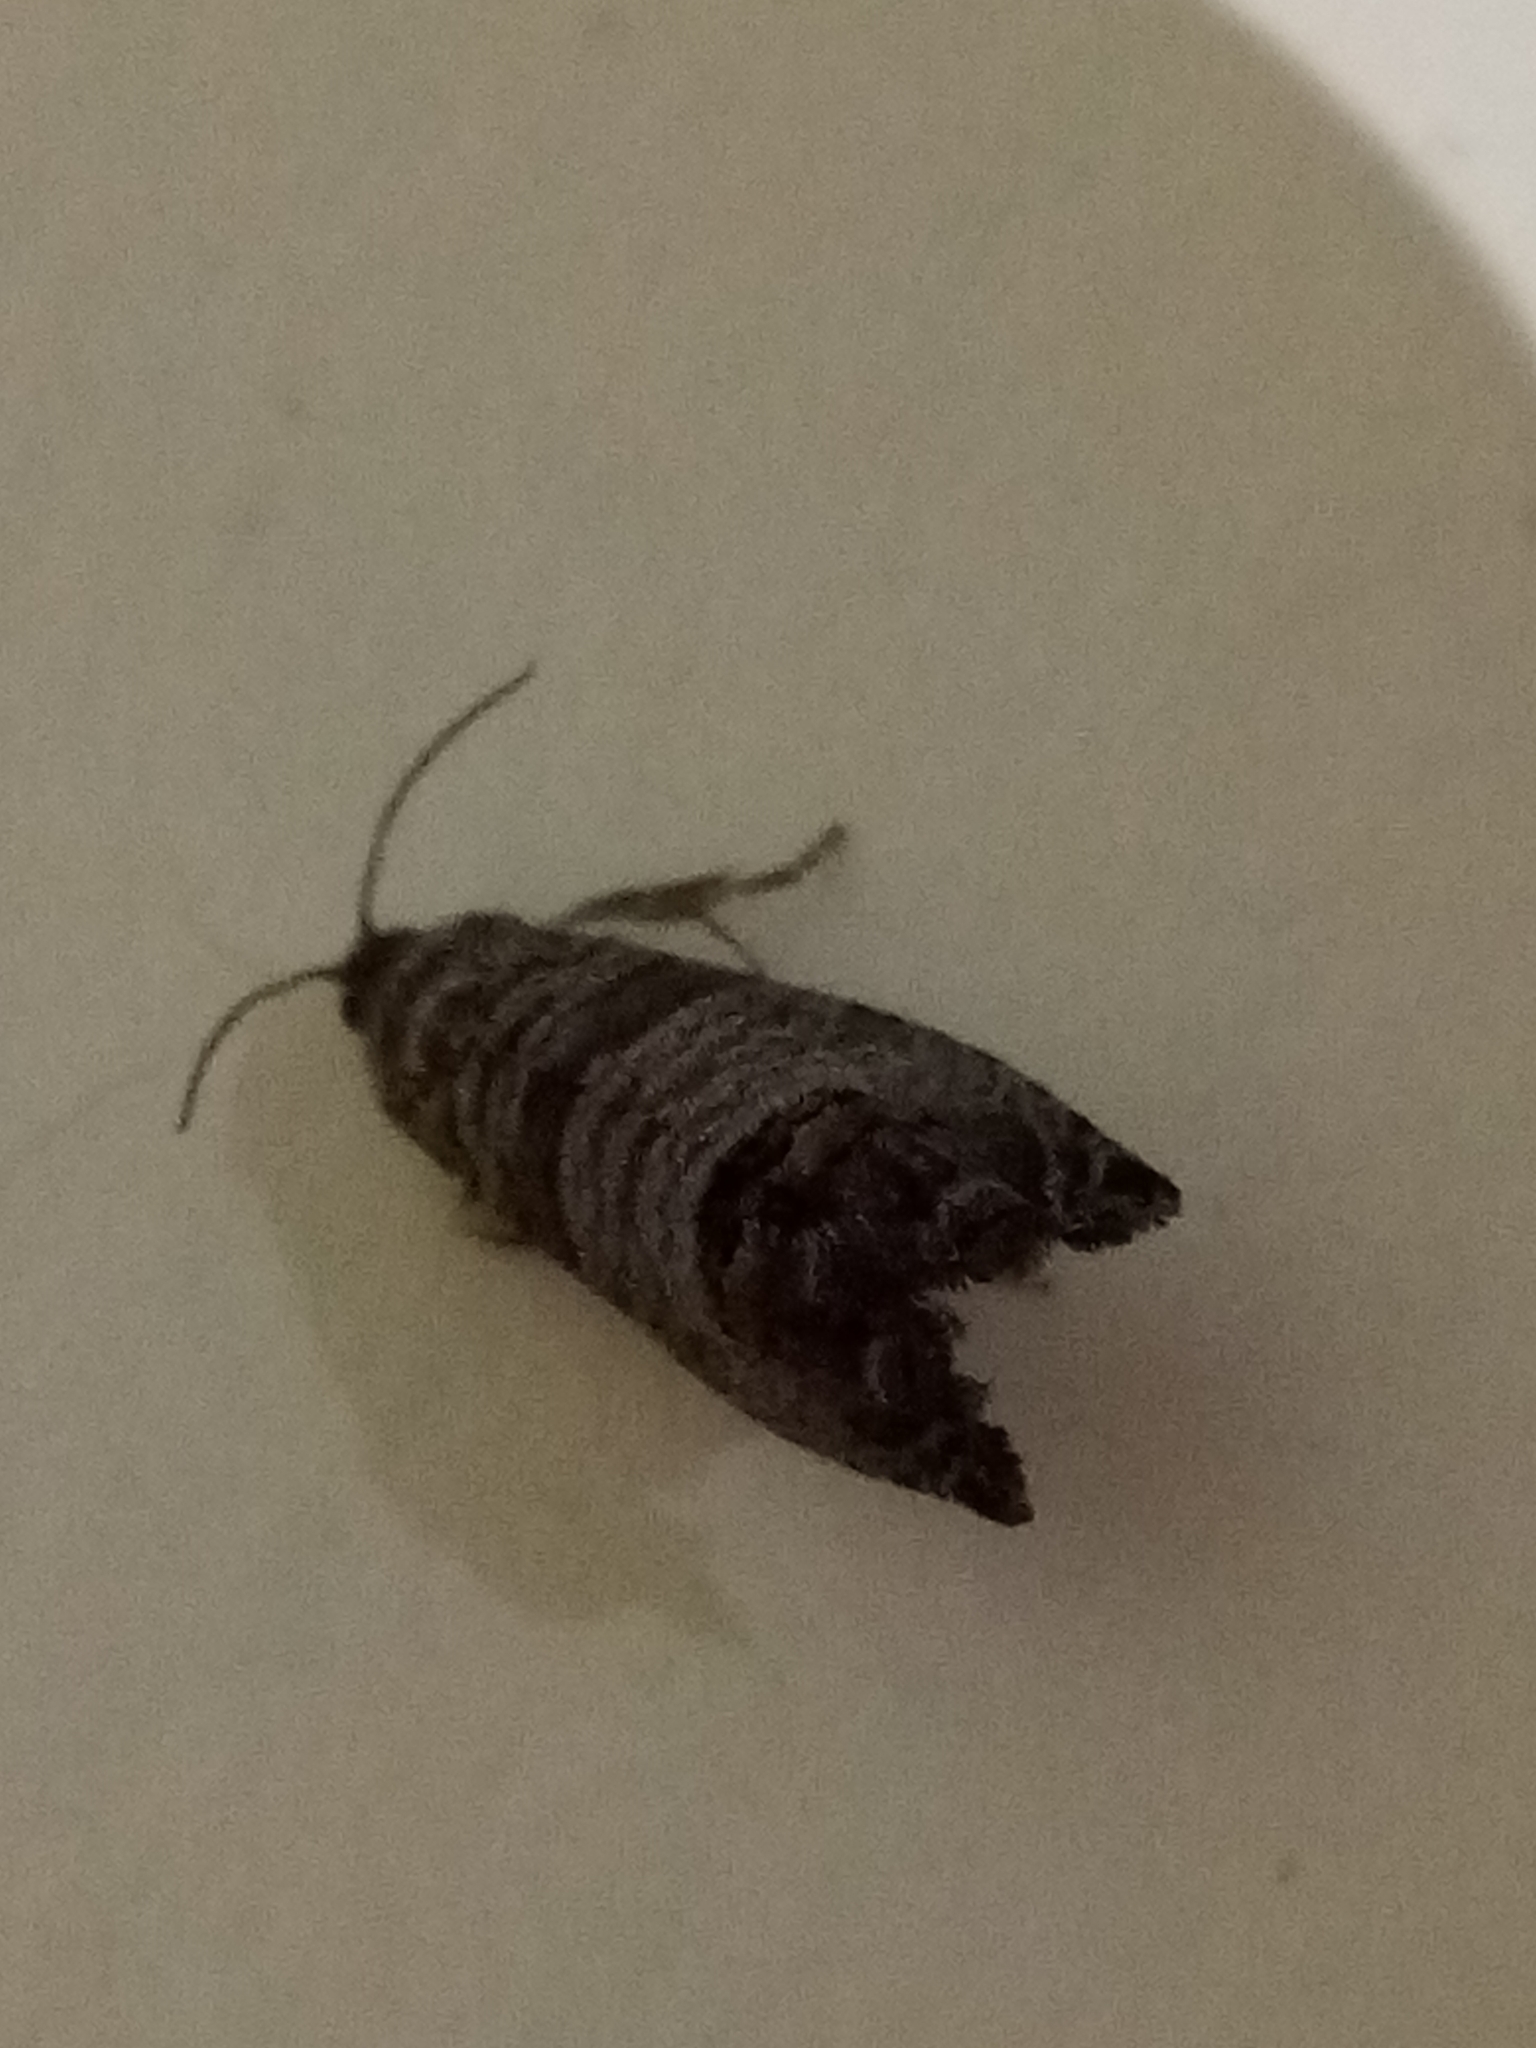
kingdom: Animalia
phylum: Arthropoda
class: Insecta
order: Lepidoptera
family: Tortricidae
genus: Cydia
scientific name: Cydia pomonella
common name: Codling moth
